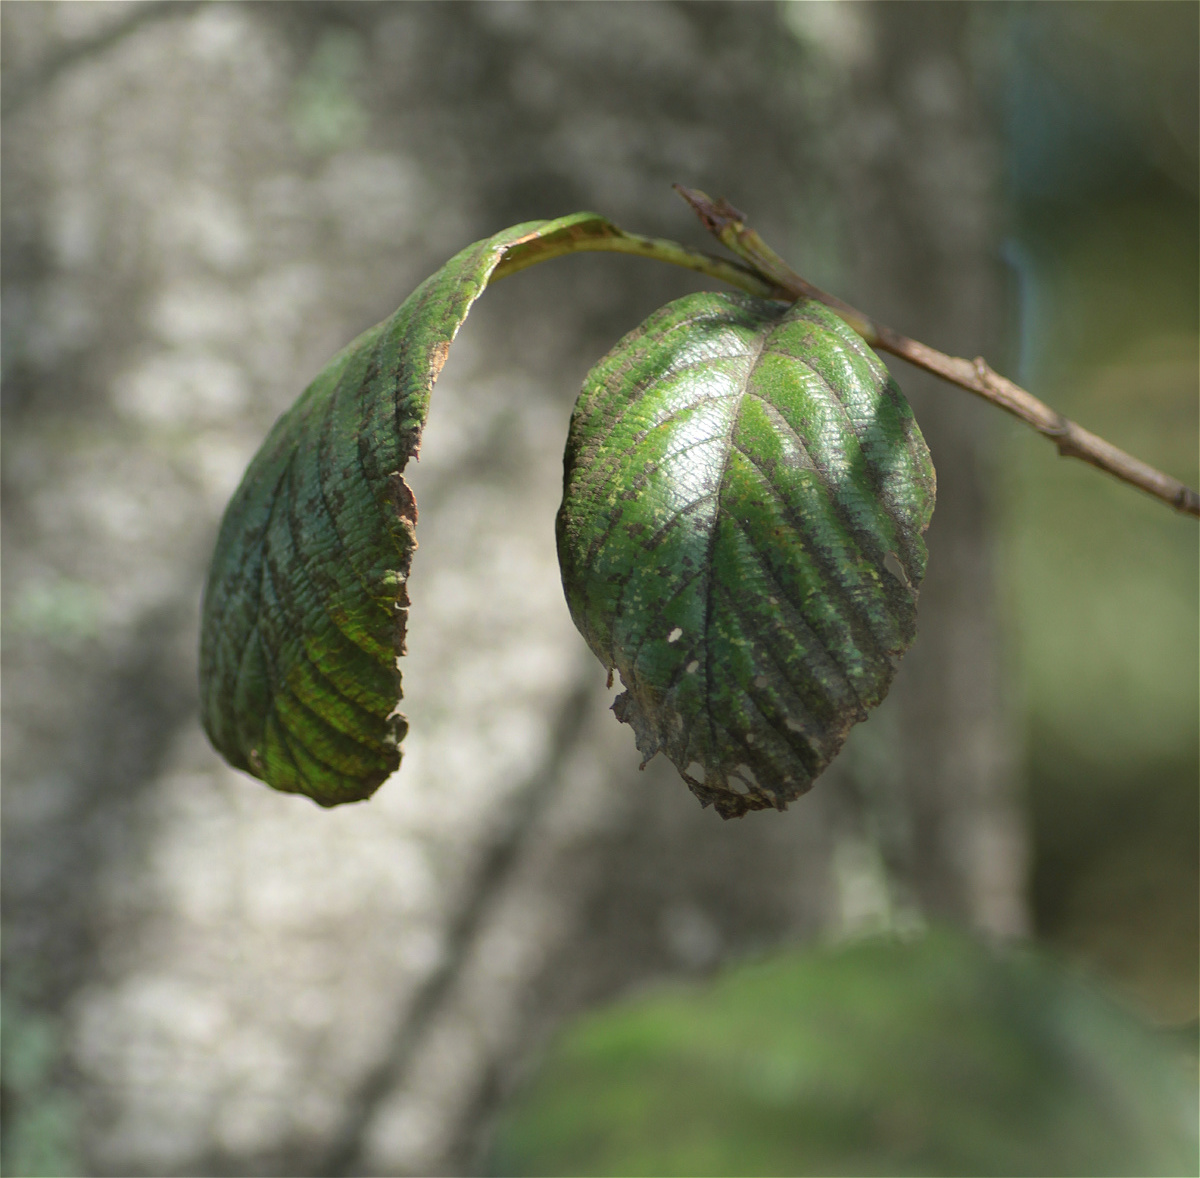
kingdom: Animalia
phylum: Arthropoda
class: Insecta
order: Hemiptera
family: Reduviidae
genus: Ambastus
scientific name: Ambastus villosus
